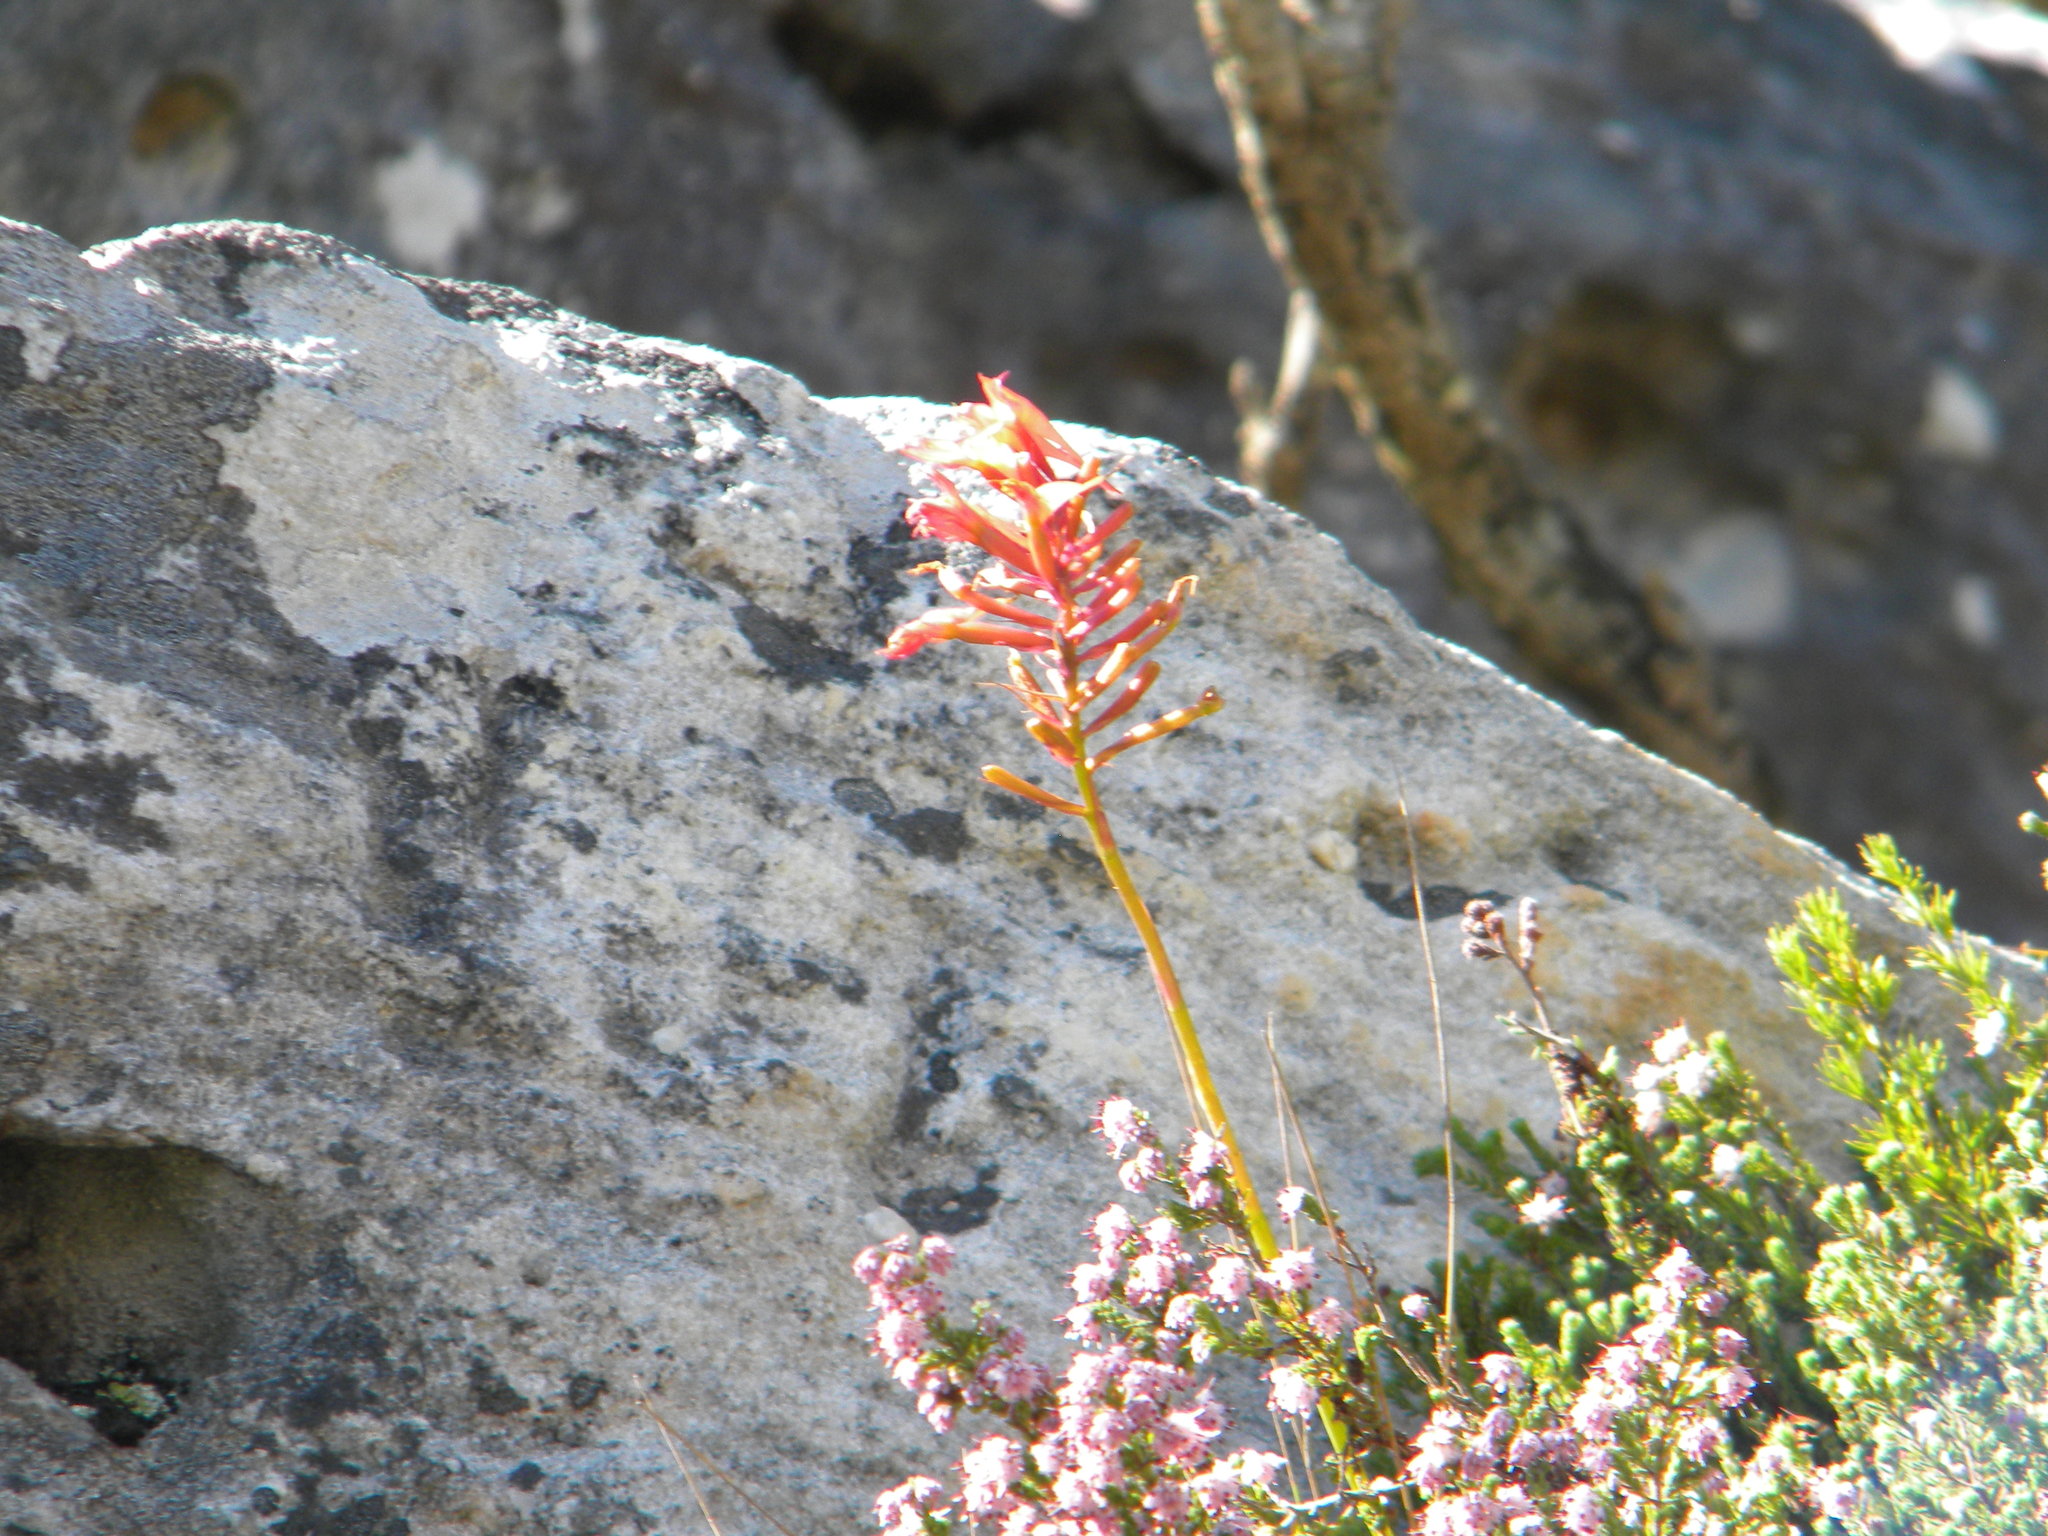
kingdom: Plantae
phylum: Tracheophyta
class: Liliopsida
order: Asparagales
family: Orchidaceae
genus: Disa
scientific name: Disa ferruginea
